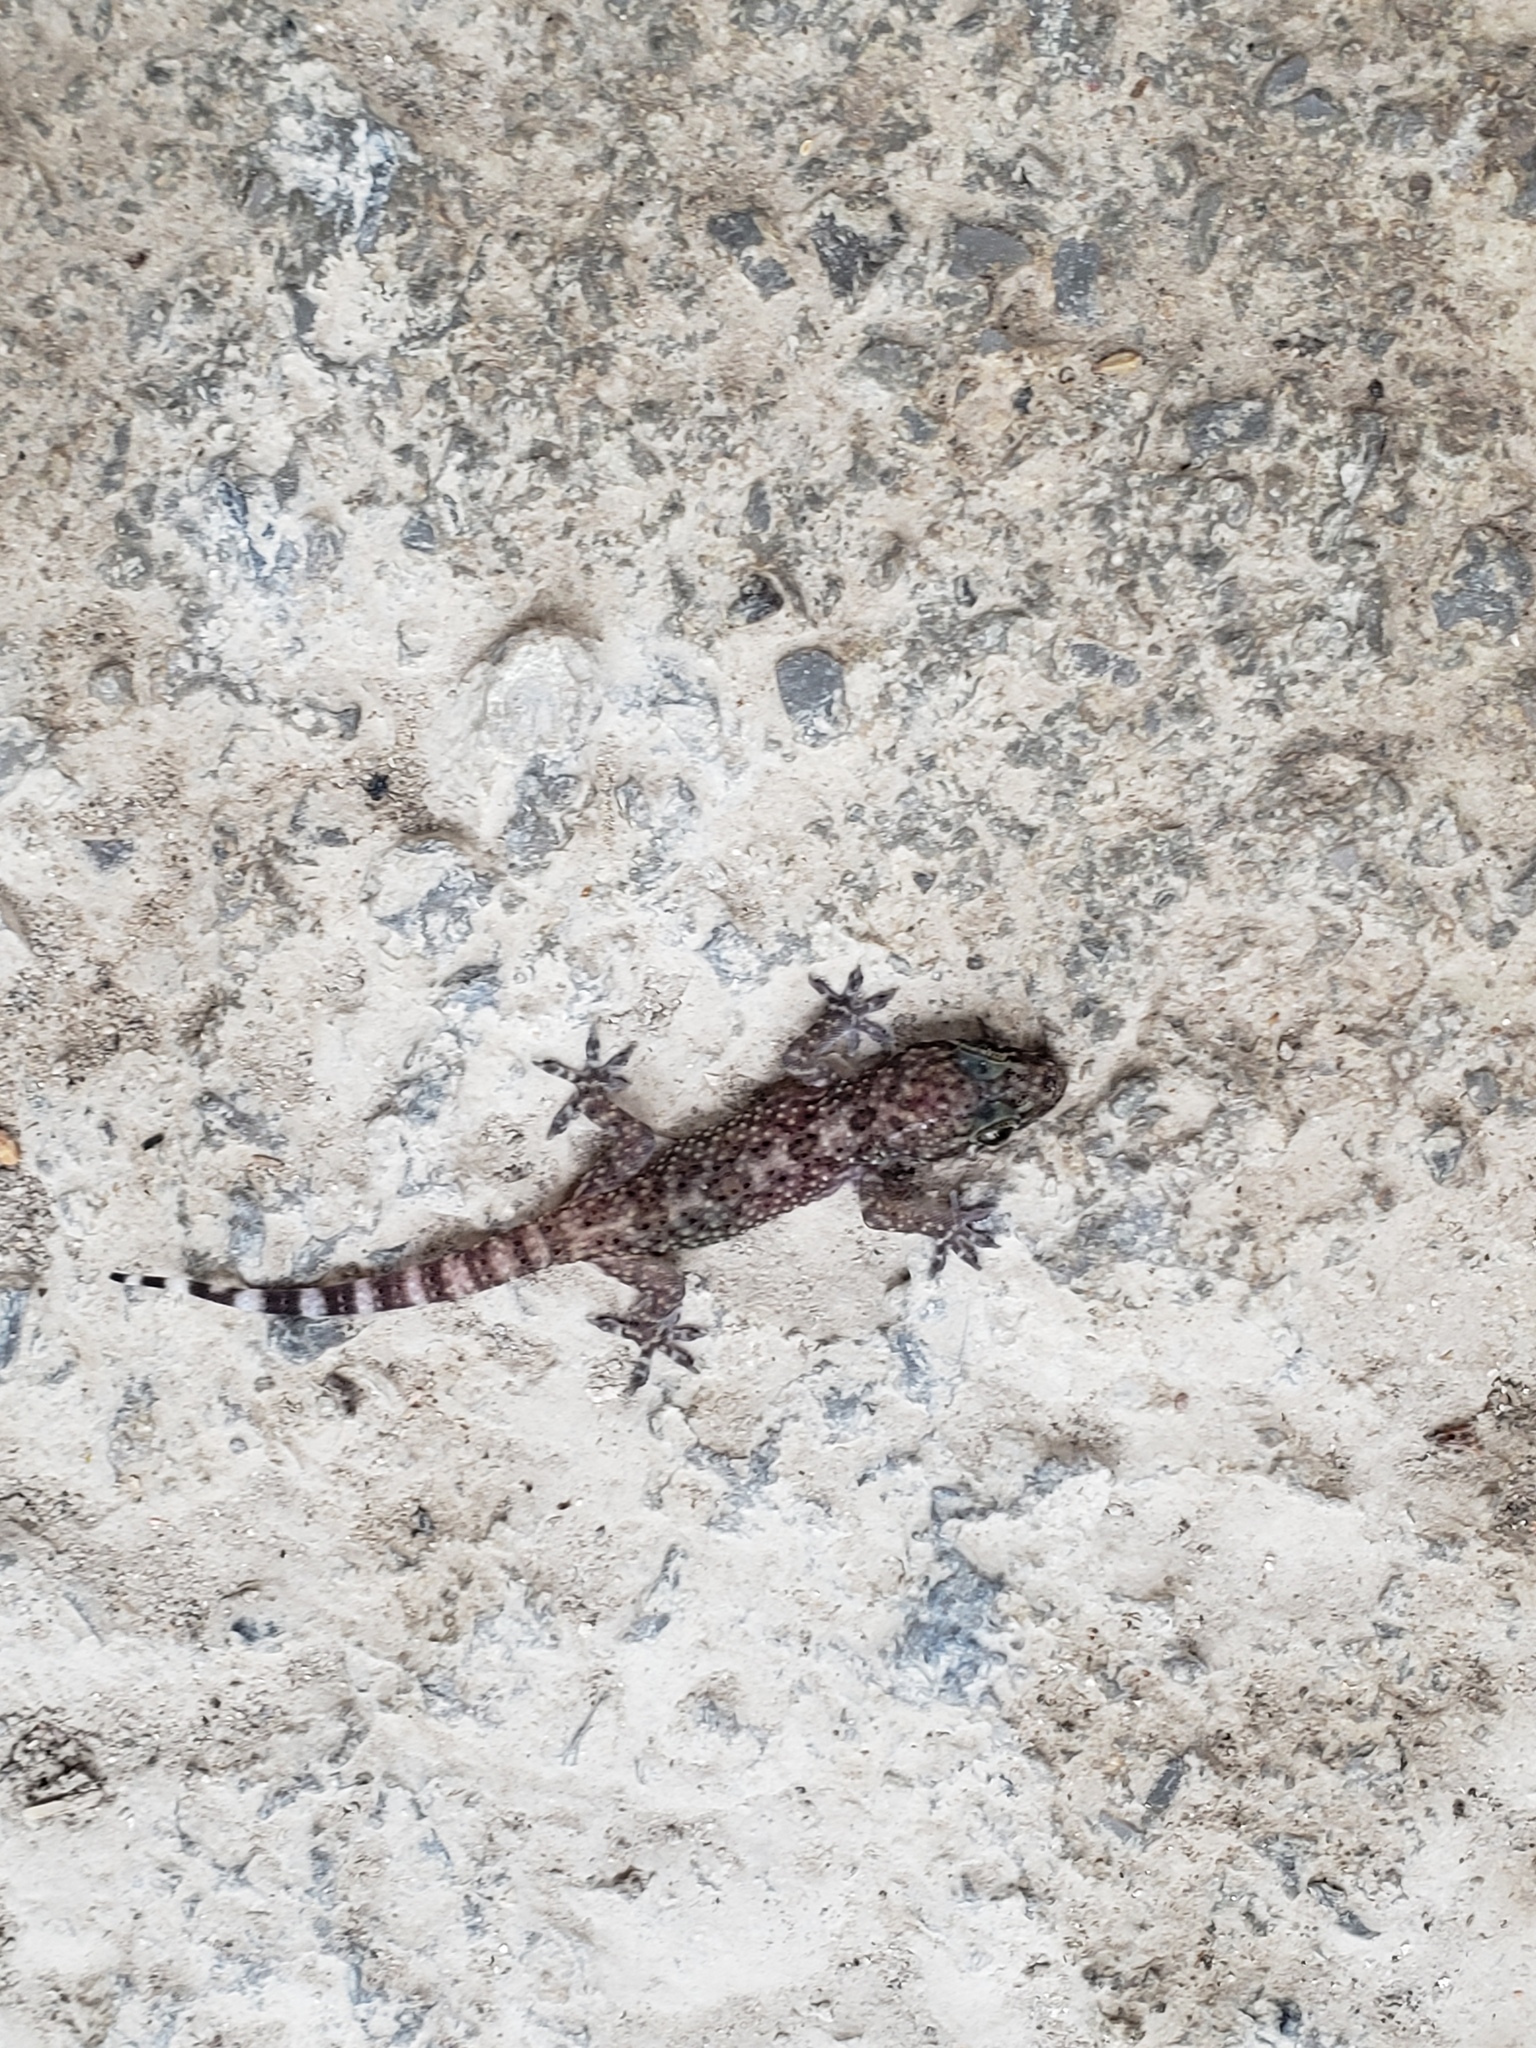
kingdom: Animalia
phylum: Chordata
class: Squamata
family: Gekkonidae
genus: Hemidactylus
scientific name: Hemidactylus turcicus
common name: Turkish gecko
